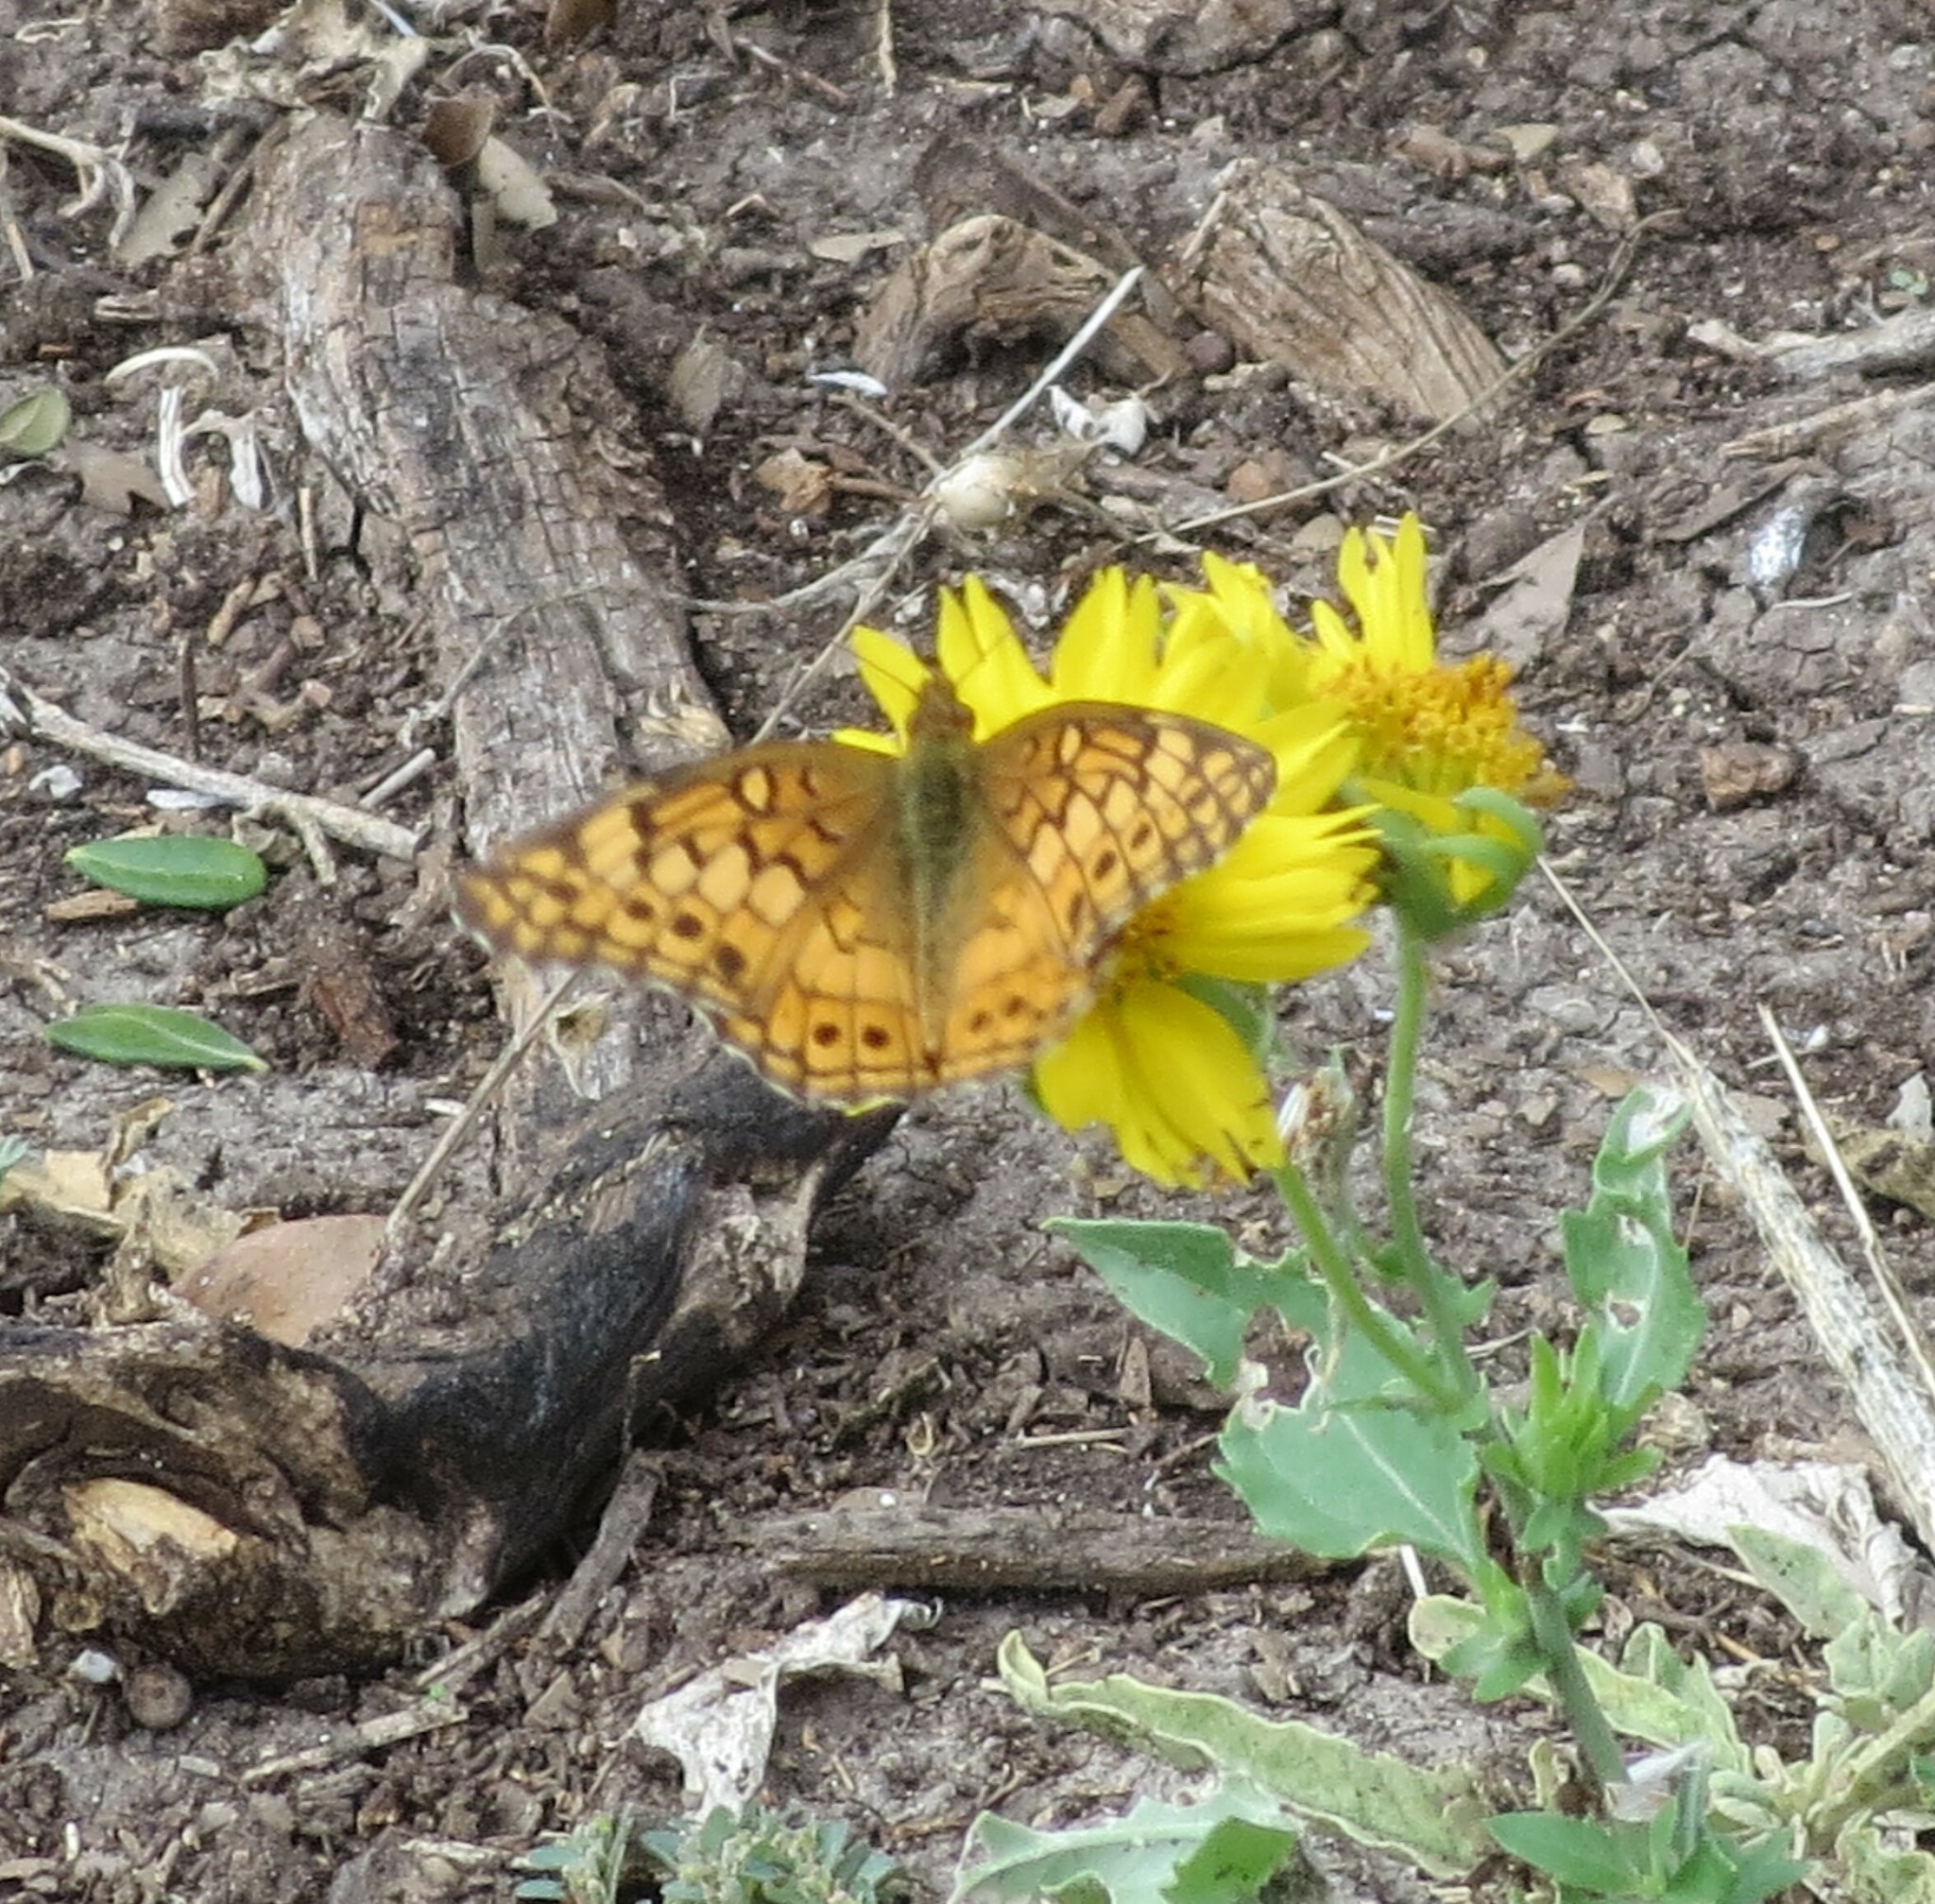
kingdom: Animalia
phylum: Arthropoda
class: Insecta
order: Lepidoptera
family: Nymphalidae
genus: Euptoieta
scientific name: Euptoieta claudia
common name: Variegated fritillary
